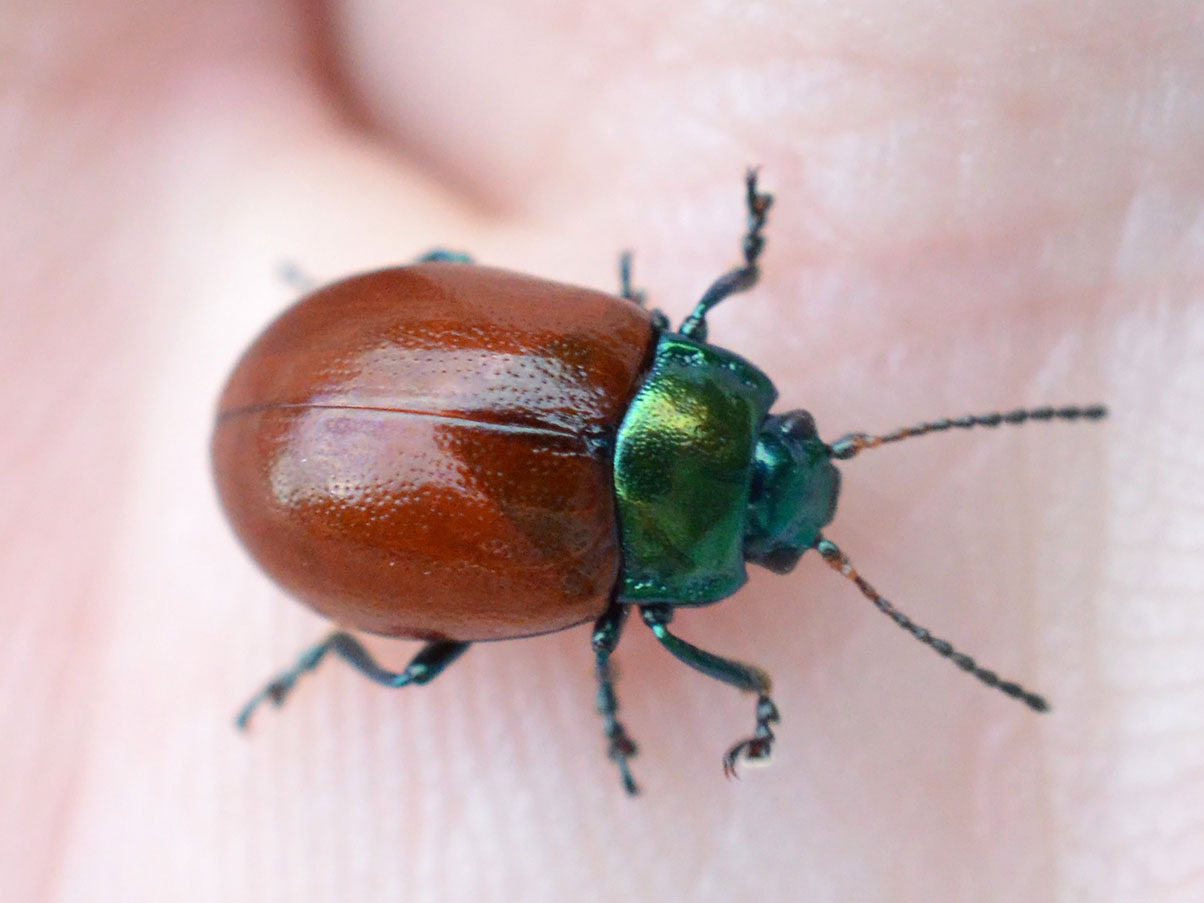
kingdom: Animalia
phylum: Arthropoda
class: Insecta
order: Coleoptera
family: Chrysomelidae
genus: Chrysomela
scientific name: Chrysomela polita
